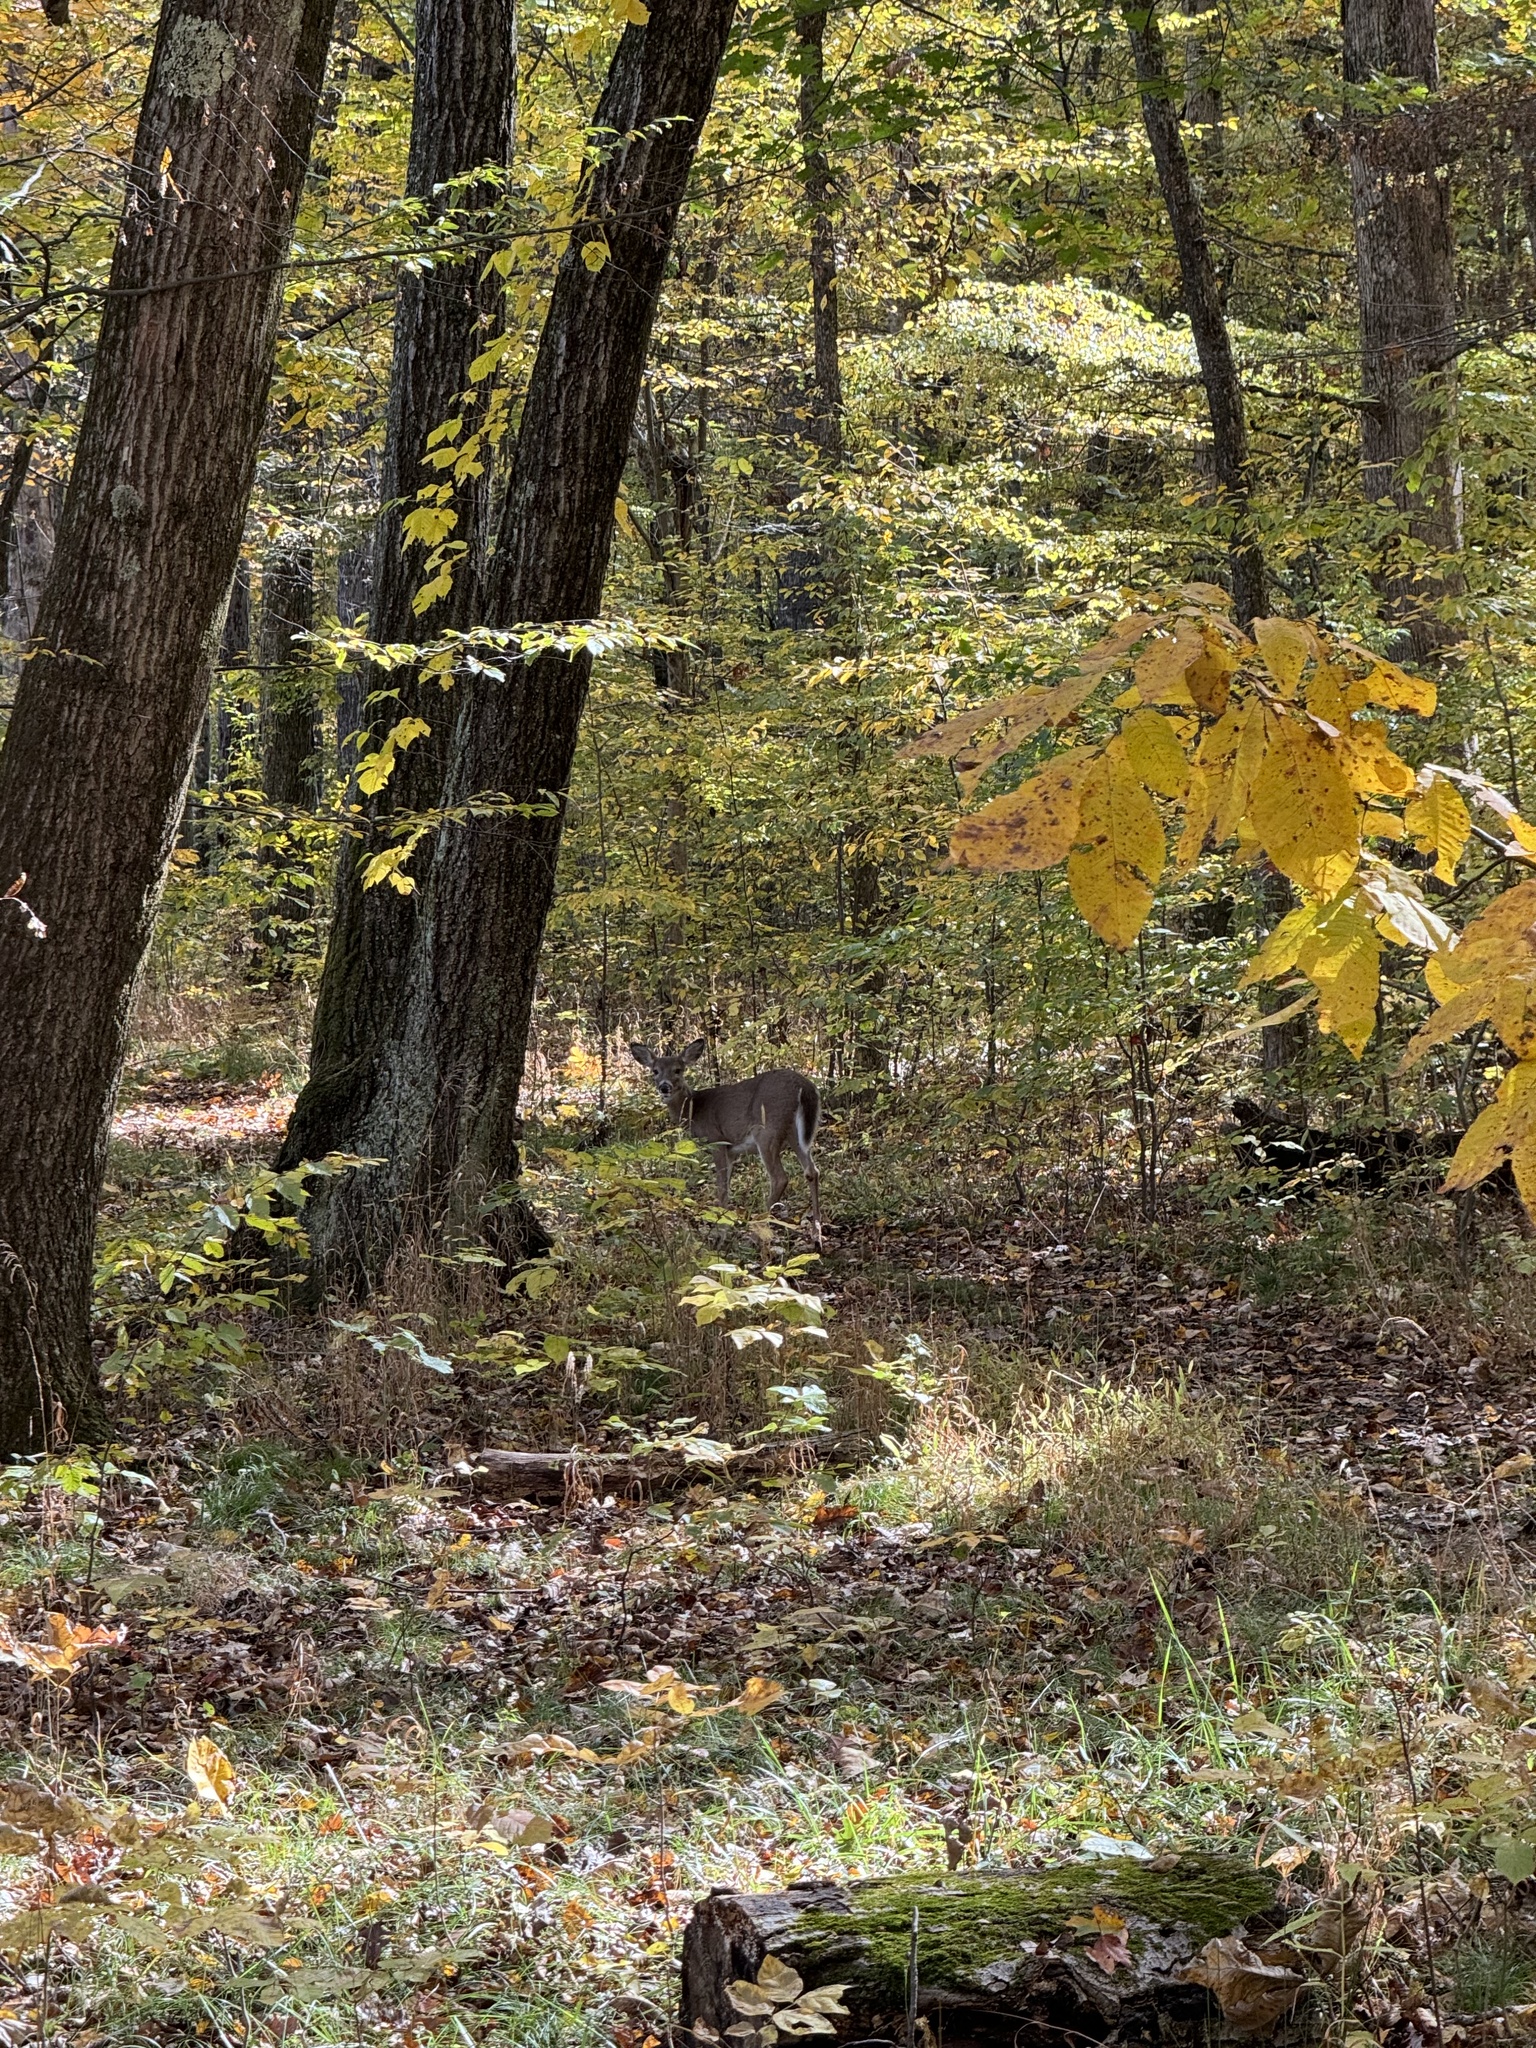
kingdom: Animalia
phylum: Chordata
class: Mammalia
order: Artiodactyla
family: Cervidae
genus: Odocoileus
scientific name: Odocoileus virginianus
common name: White-tailed deer
